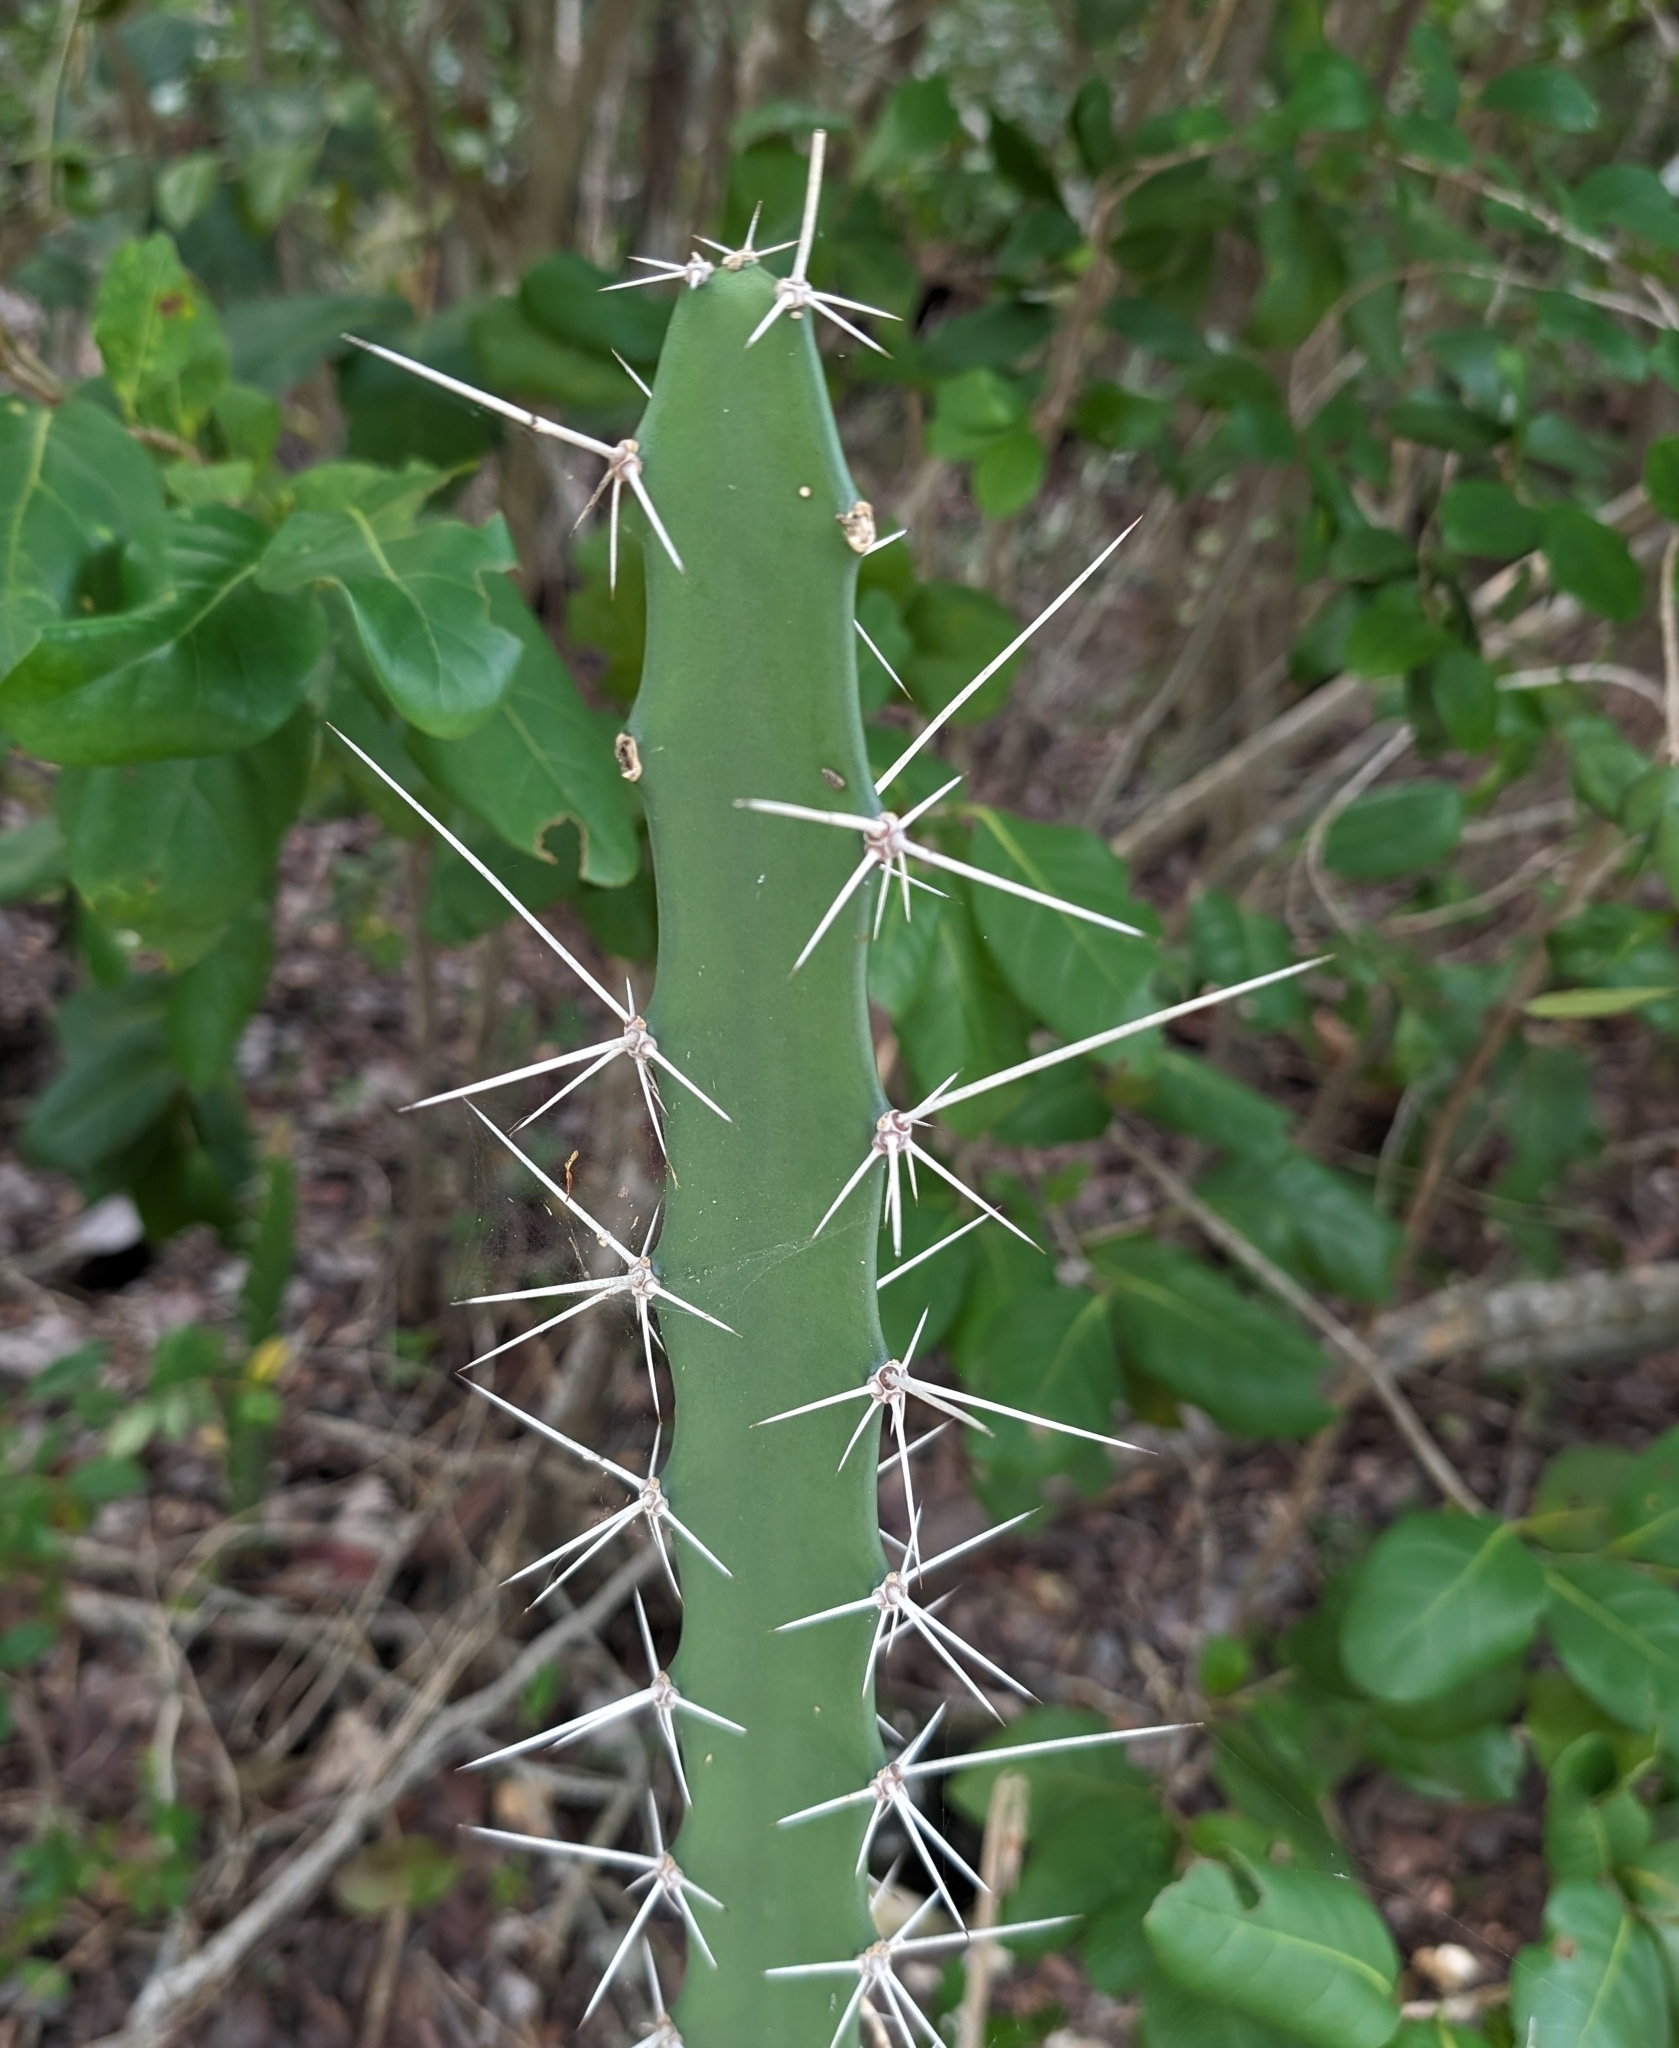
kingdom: Plantae
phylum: Tracheophyta
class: Magnoliopsida
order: Caryophyllales
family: Cactaceae
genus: Acanthocereus
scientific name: Acanthocereus tetragonus
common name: Triangle cactus
